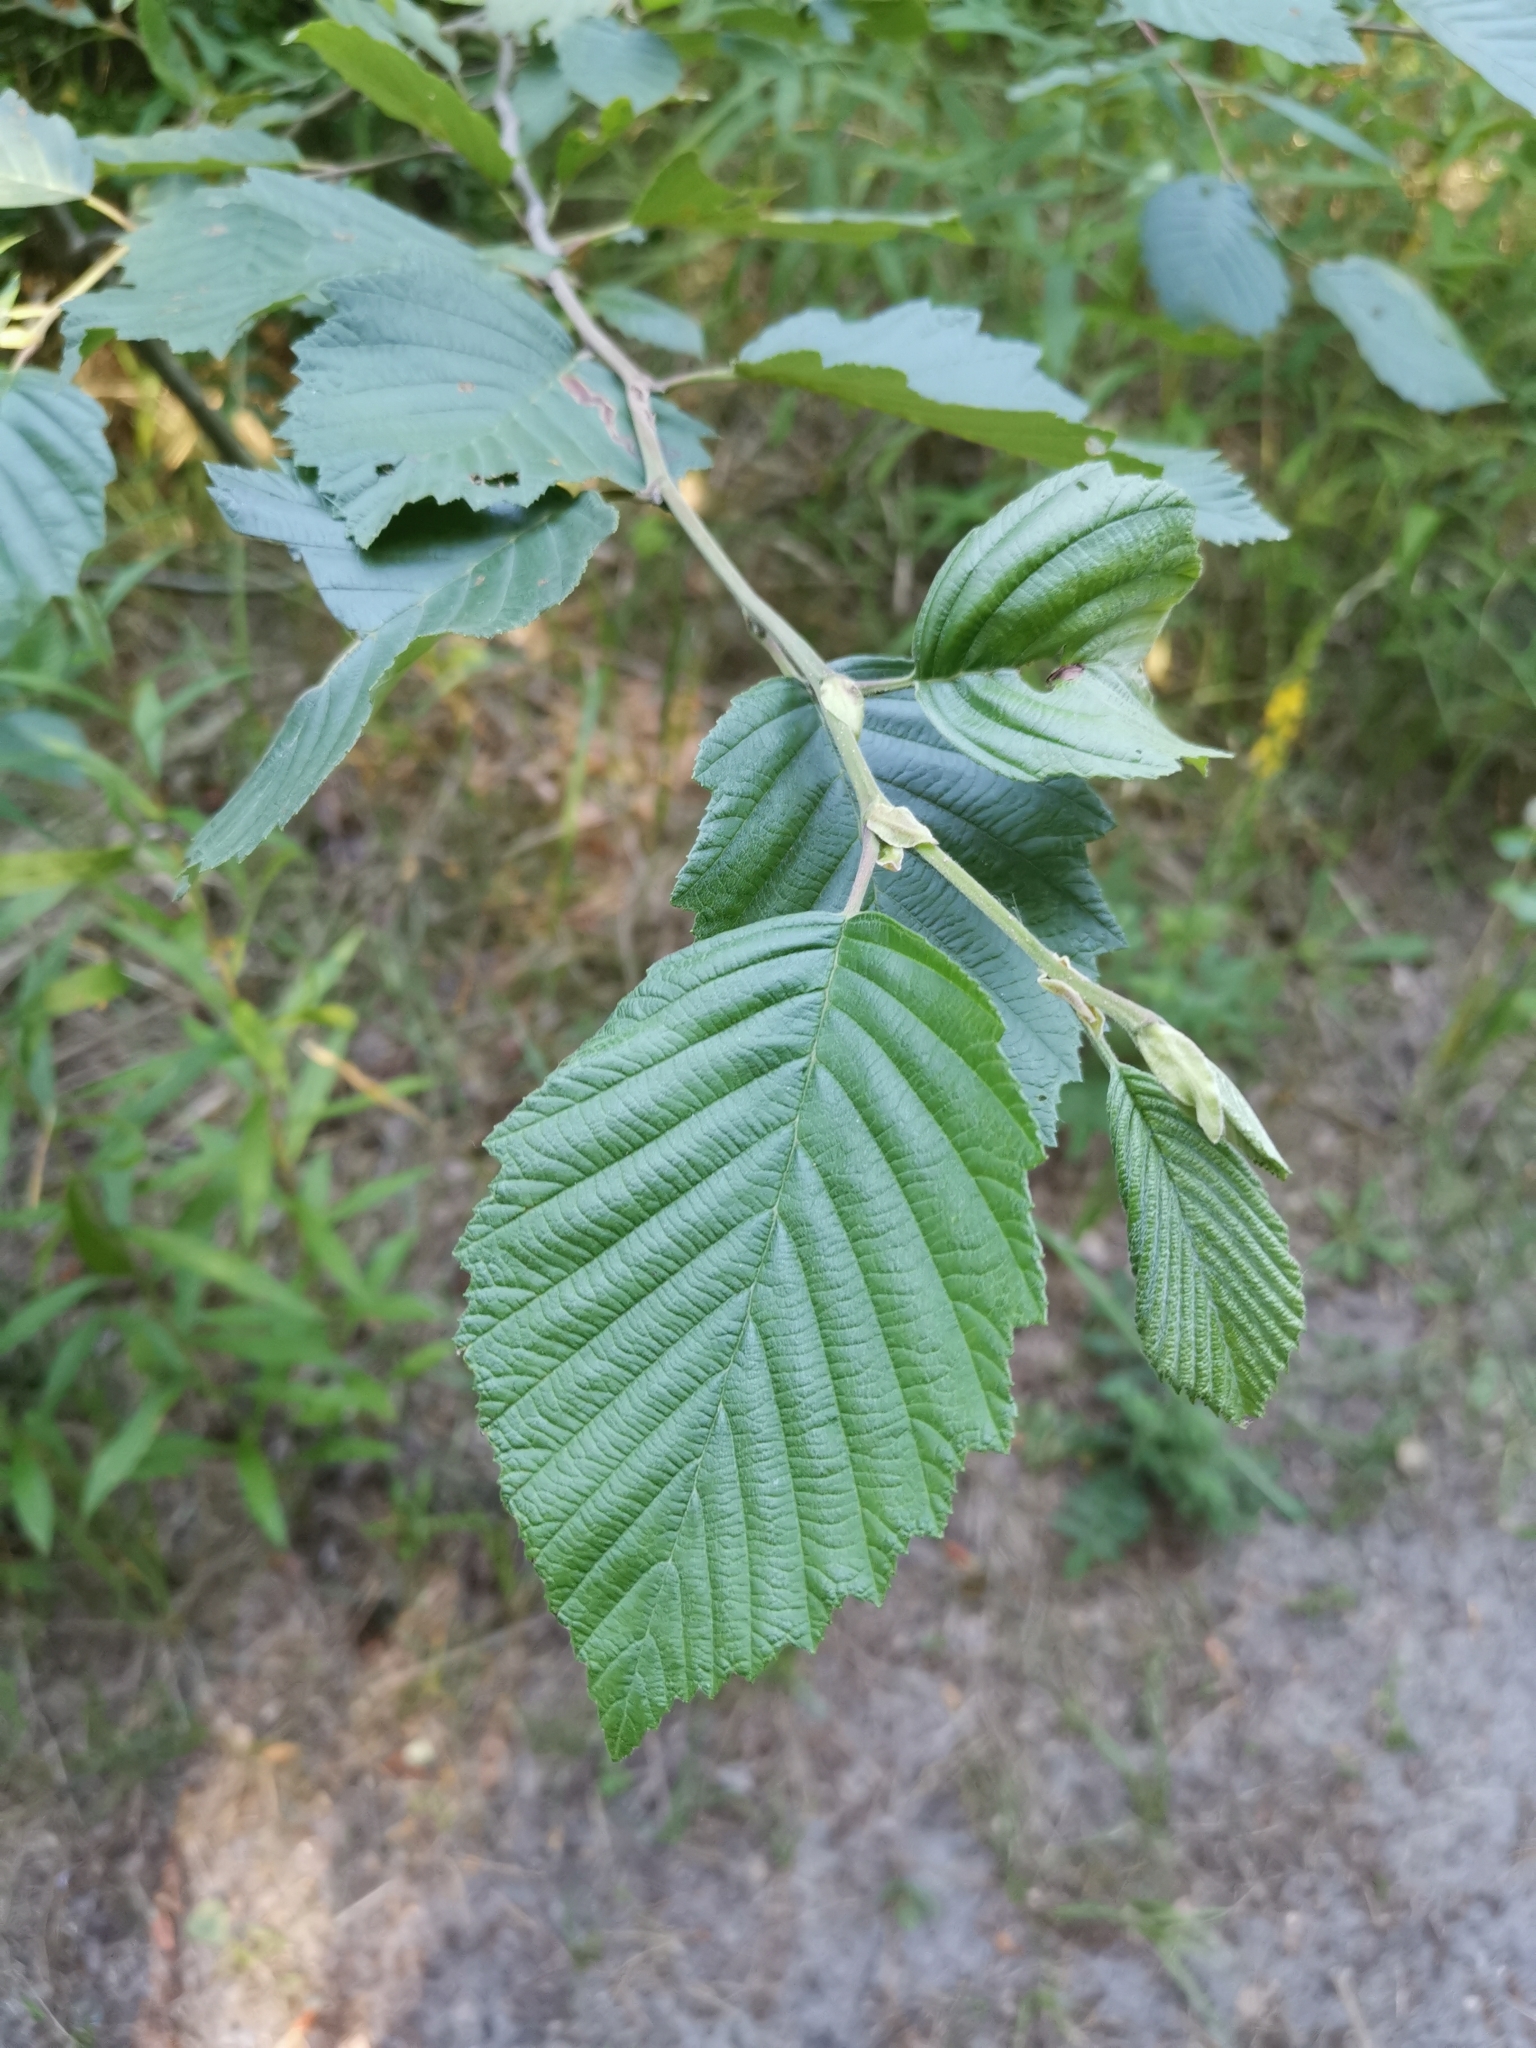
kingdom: Plantae
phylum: Tracheophyta
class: Magnoliopsida
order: Fagales
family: Betulaceae
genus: Alnus
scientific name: Alnus incana
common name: Grey alder
